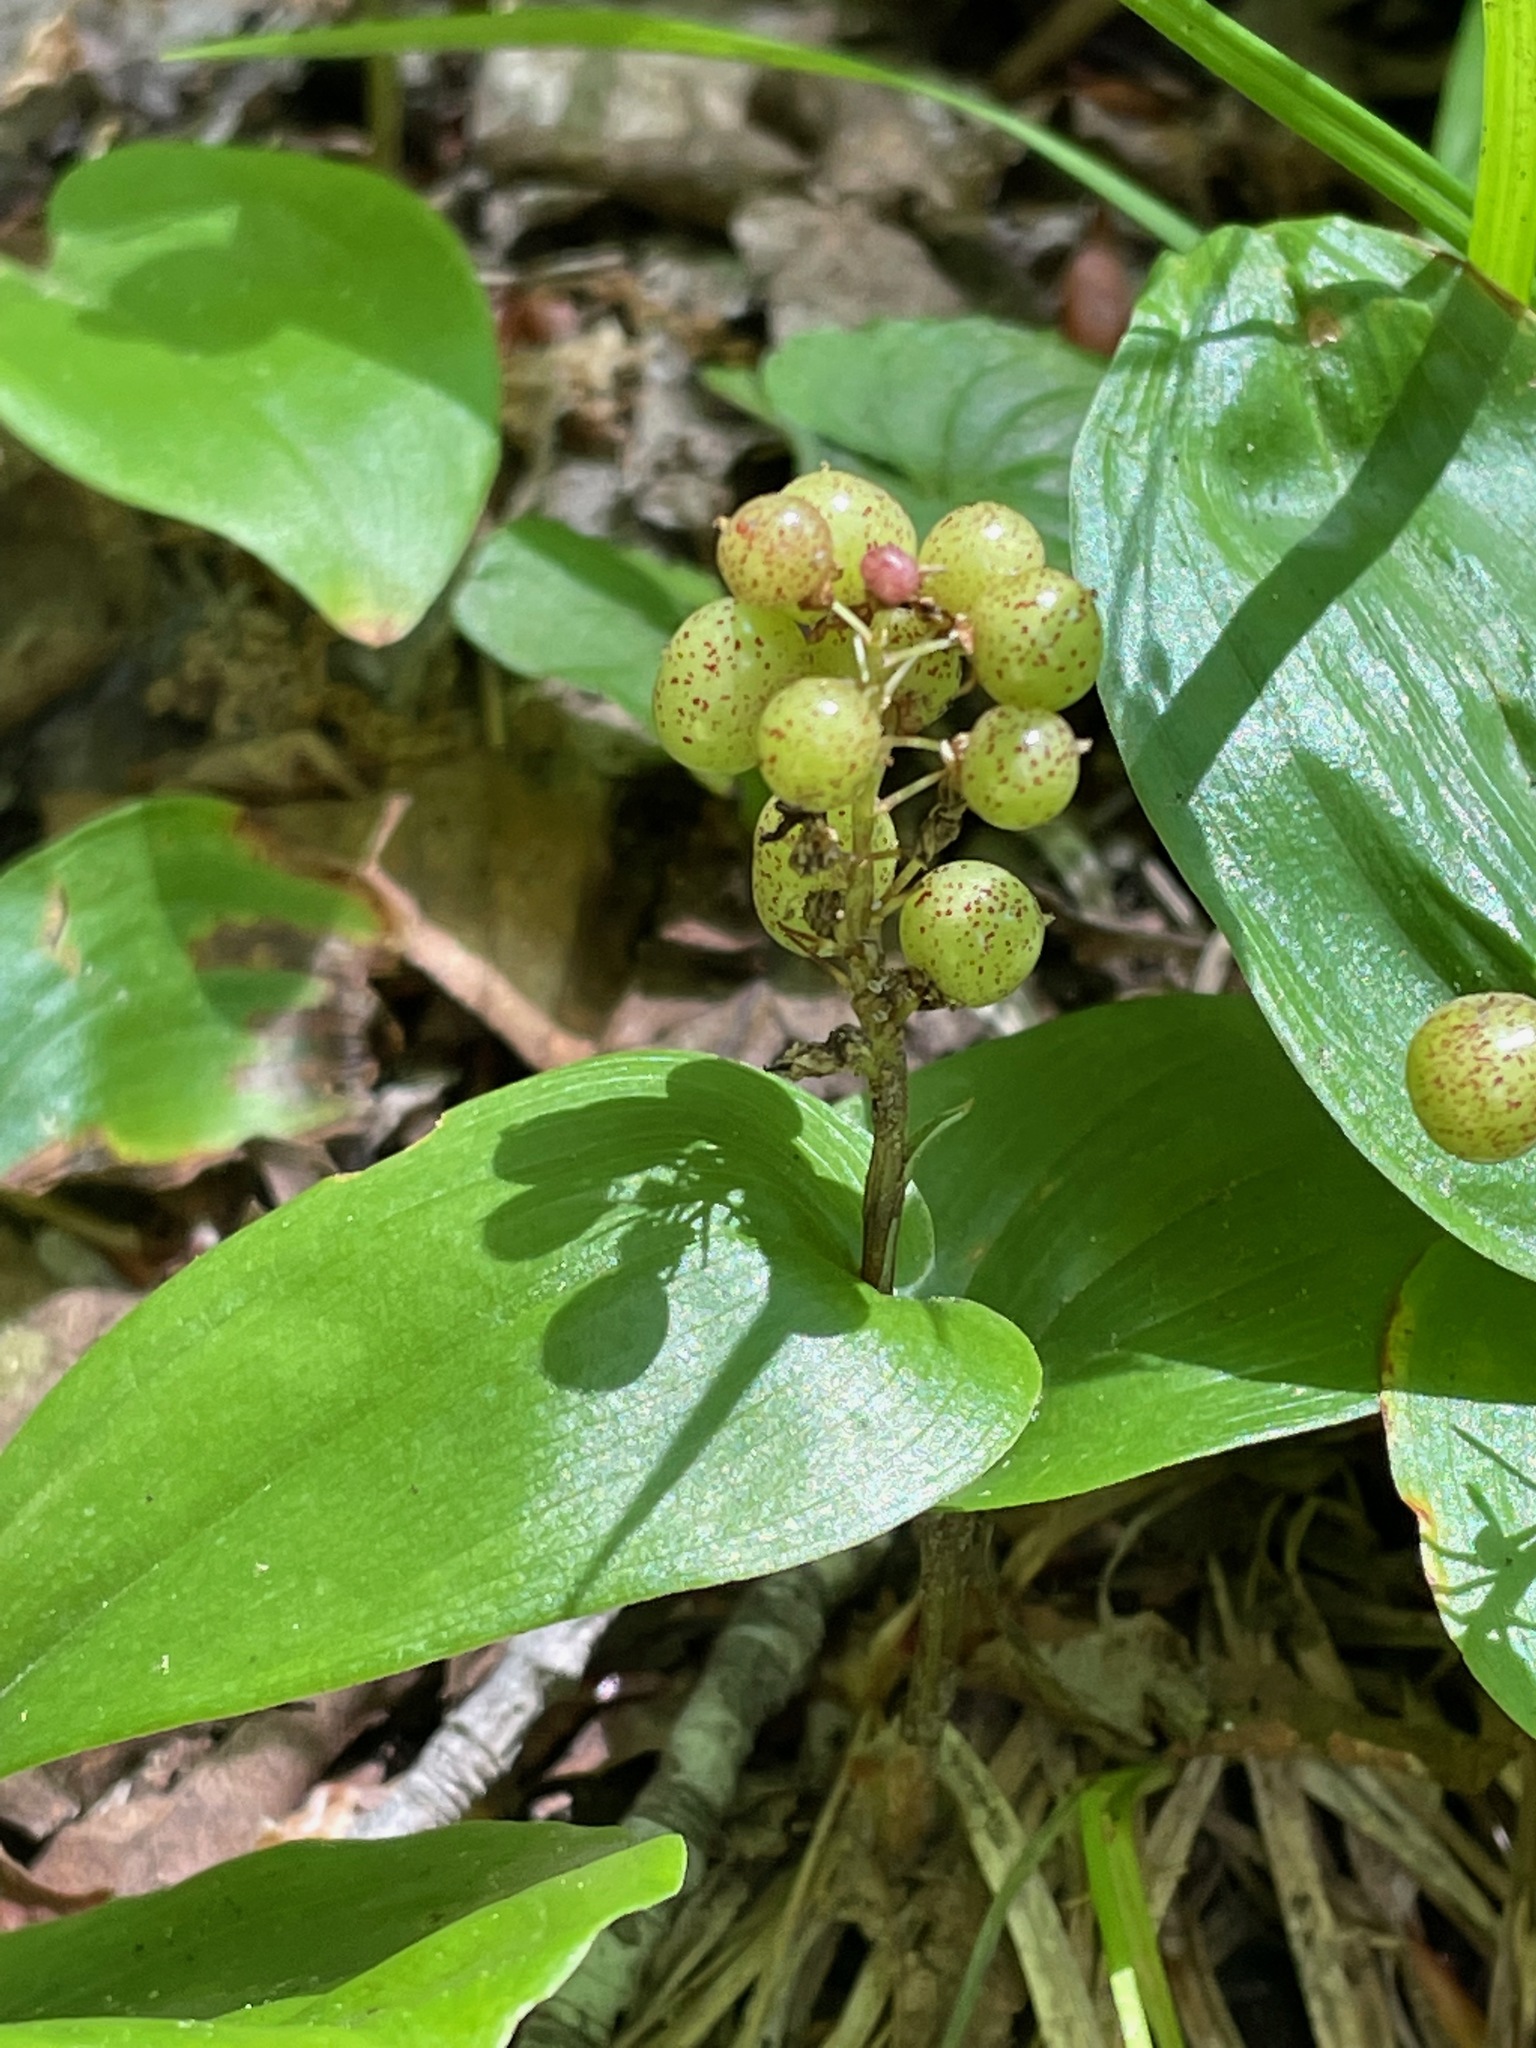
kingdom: Plantae
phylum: Tracheophyta
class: Liliopsida
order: Asparagales
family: Asparagaceae
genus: Maianthemum
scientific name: Maianthemum canadense
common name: False lily-of-the-valley
